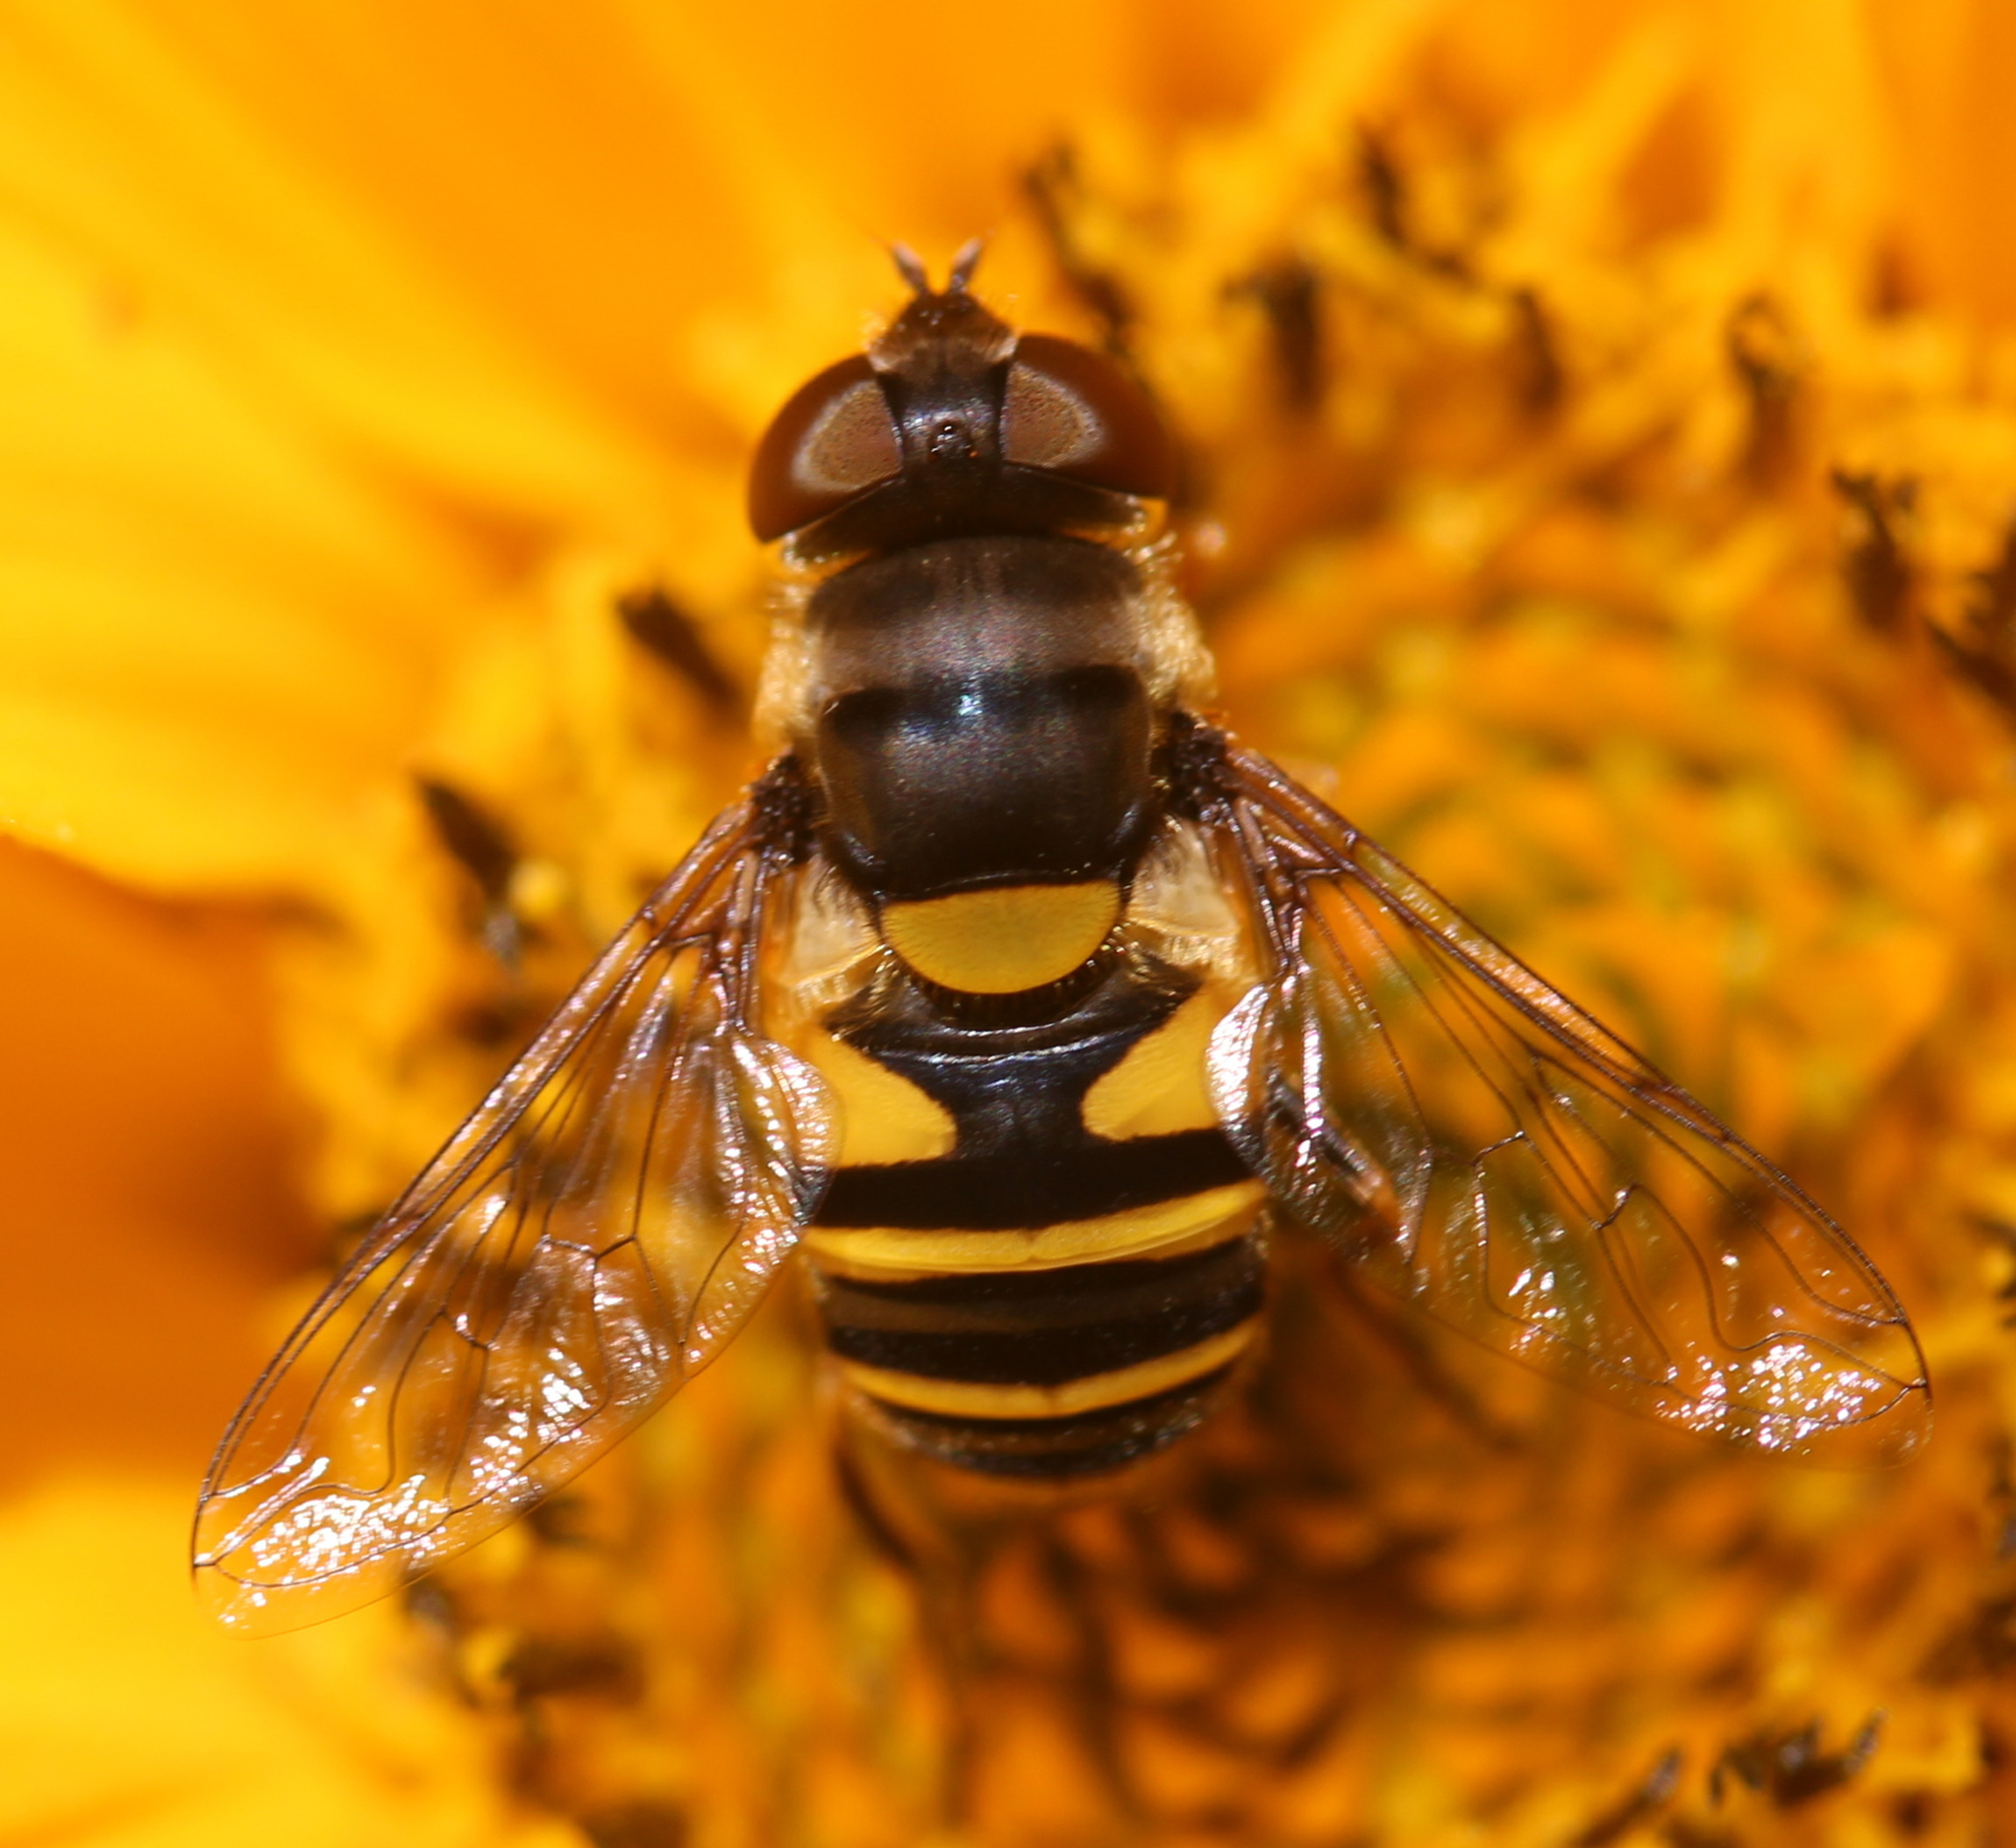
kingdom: Animalia
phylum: Arthropoda
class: Insecta
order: Diptera
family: Syrphidae
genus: Eristalis
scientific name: Eristalis transversa
